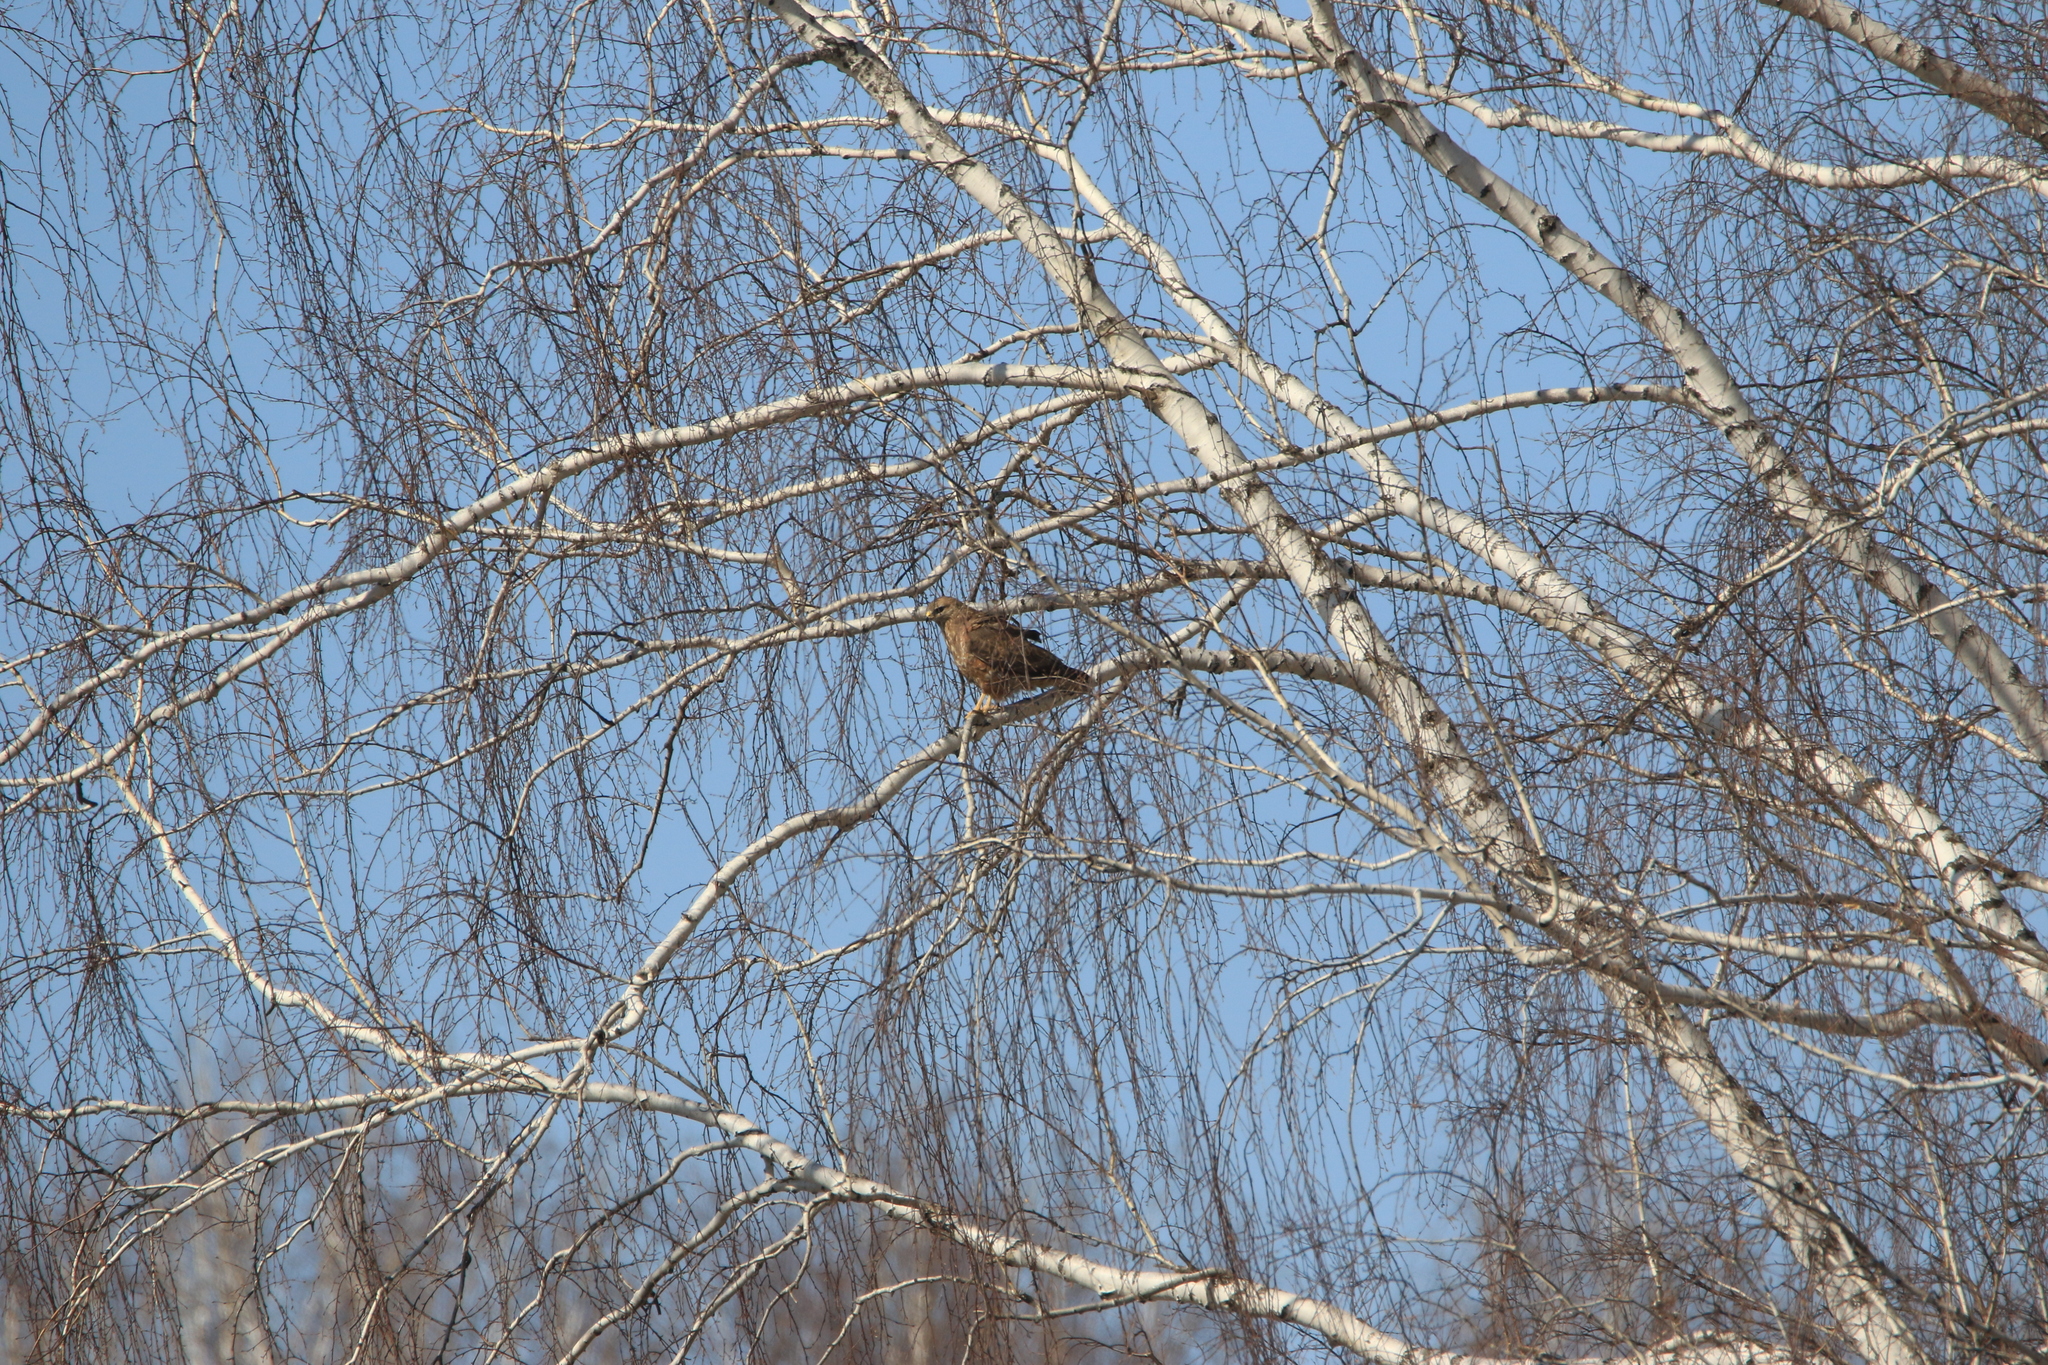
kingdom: Animalia
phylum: Chordata
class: Aves
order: Accipitriformes
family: Accipitridae
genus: Buteo
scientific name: Buteo buteo
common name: Common buzzard
